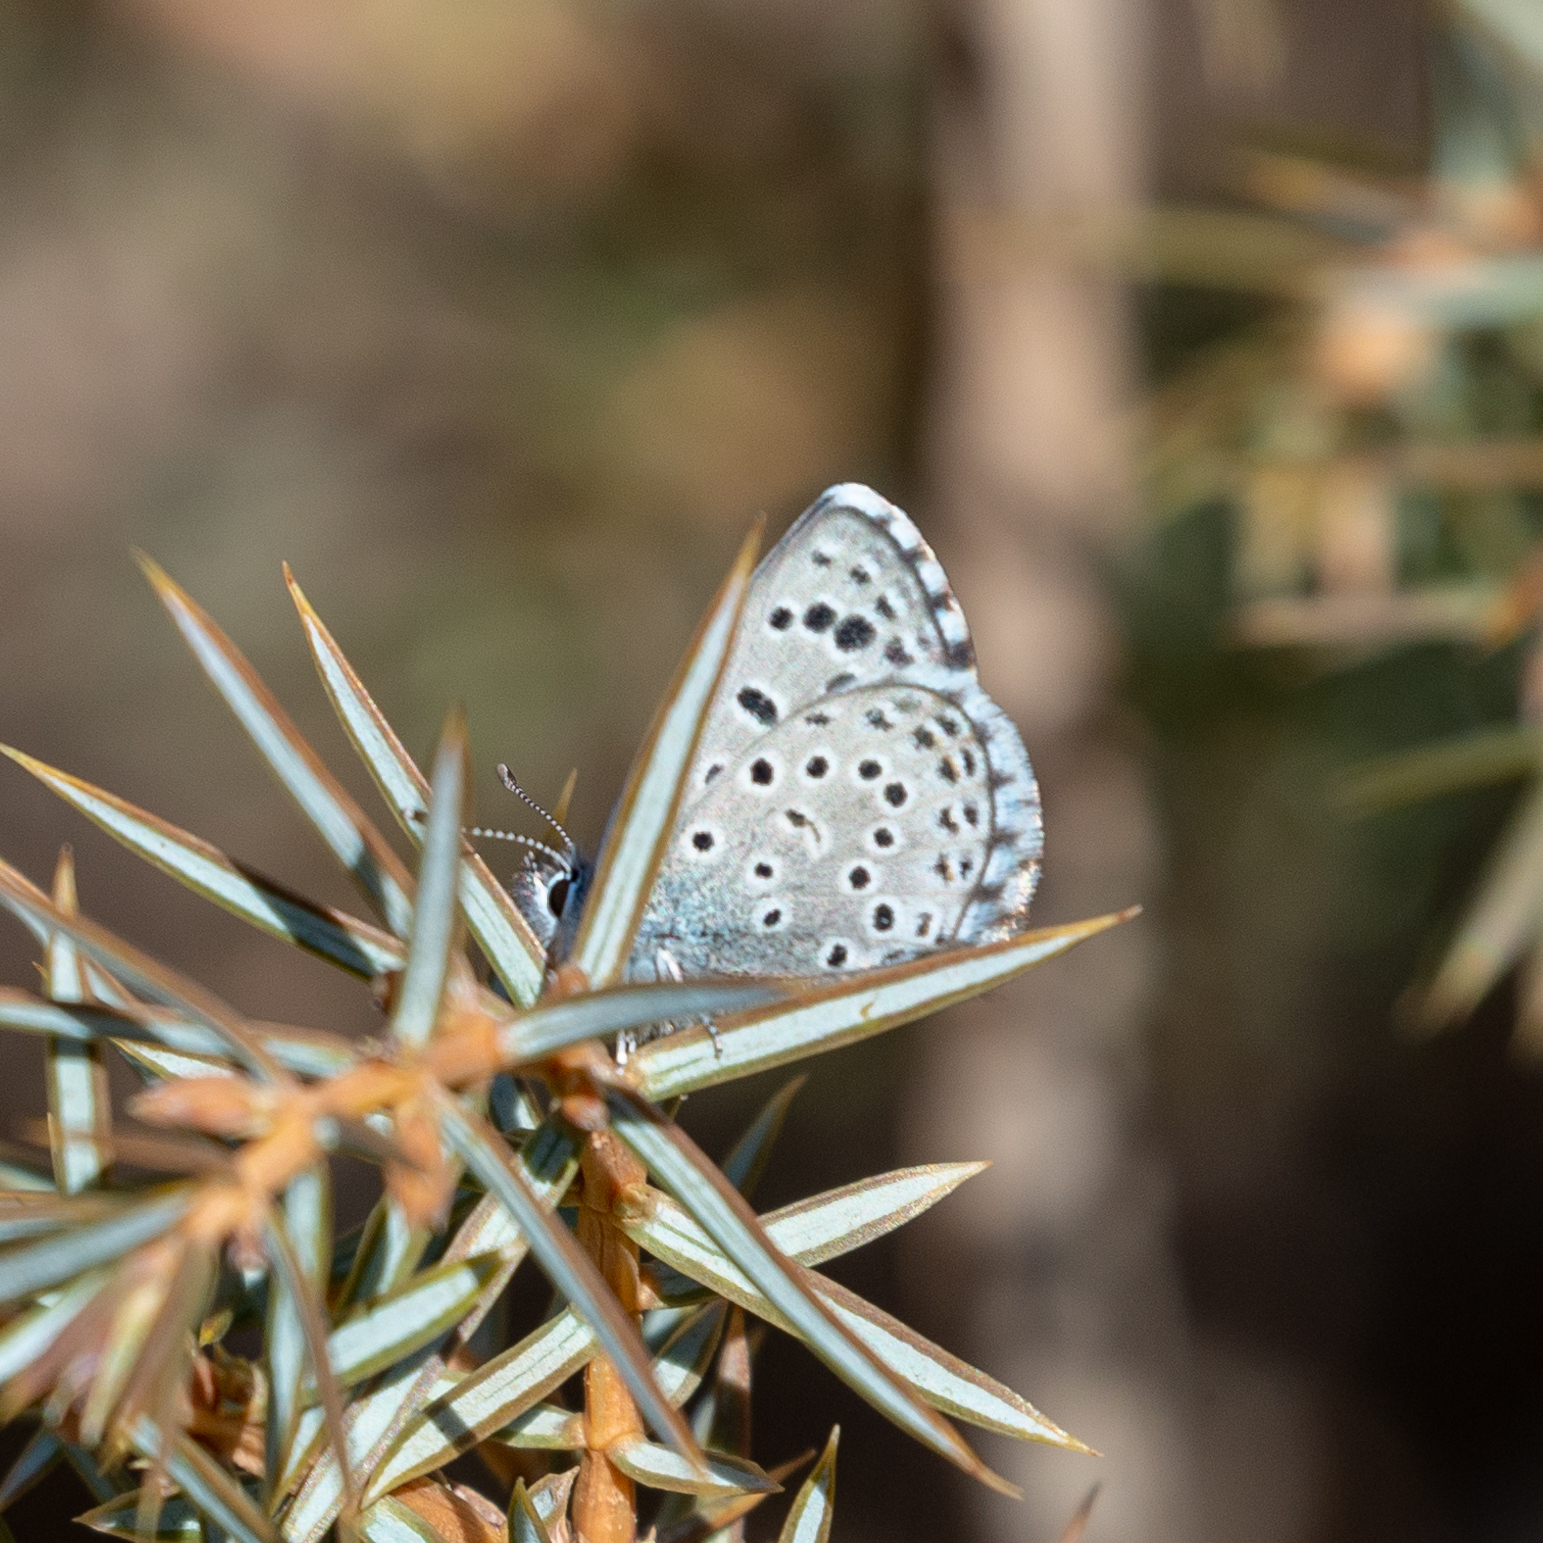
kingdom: Animalia
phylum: Arthropoda
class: Insecta
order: Lepidoptera
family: Lycaenidae
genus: Pseudophilotes
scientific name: Pseudophilotes baton
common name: Baton blue
